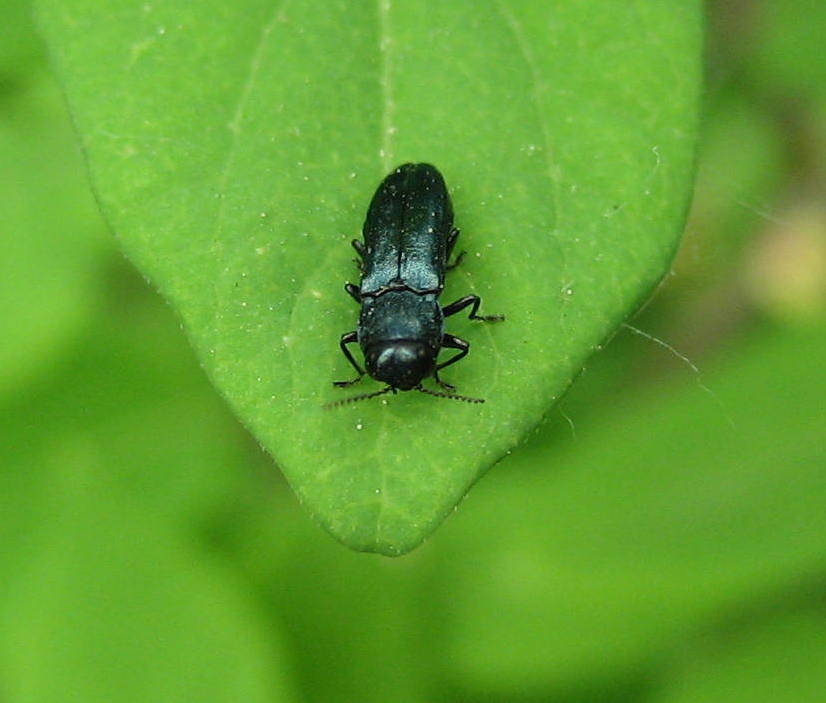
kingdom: Animalia
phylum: Arthropoda
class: Insecta
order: Coleoptera
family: Buprestidae
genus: Agrilus
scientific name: Agrilus cyanescens
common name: Bluish borer beetle
